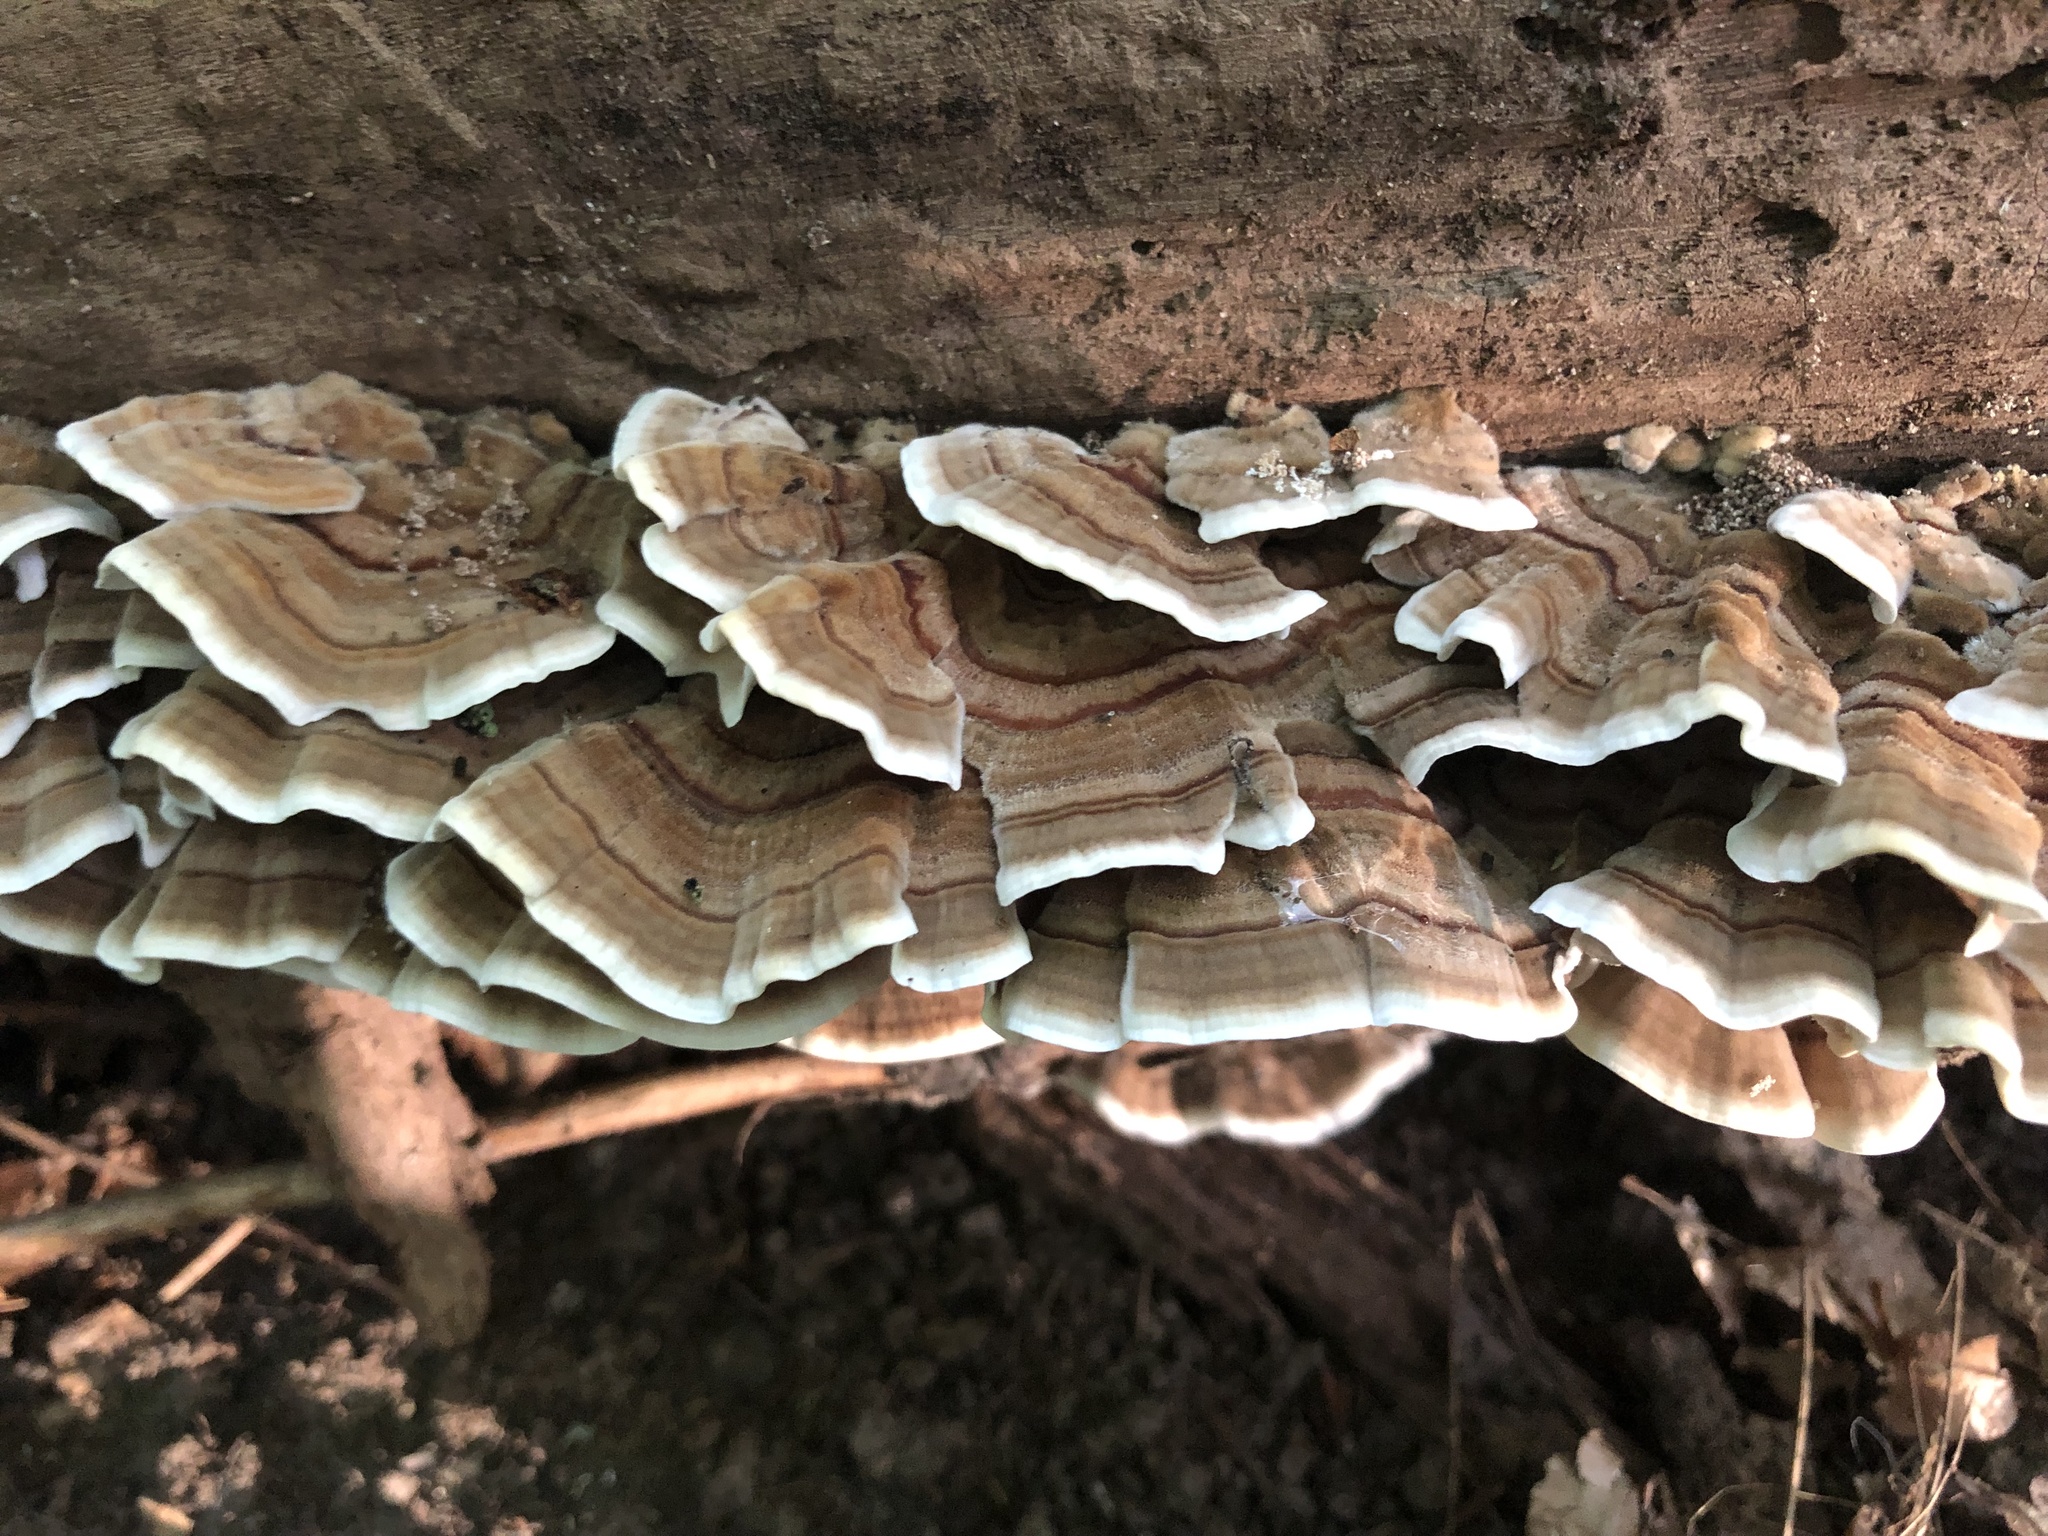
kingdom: Fungi
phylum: Basidiomycota
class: Agaricomycetes
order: Polyporales
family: Polyporaceae
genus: Trametes
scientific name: Trametes versicolor
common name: Turkeytail
